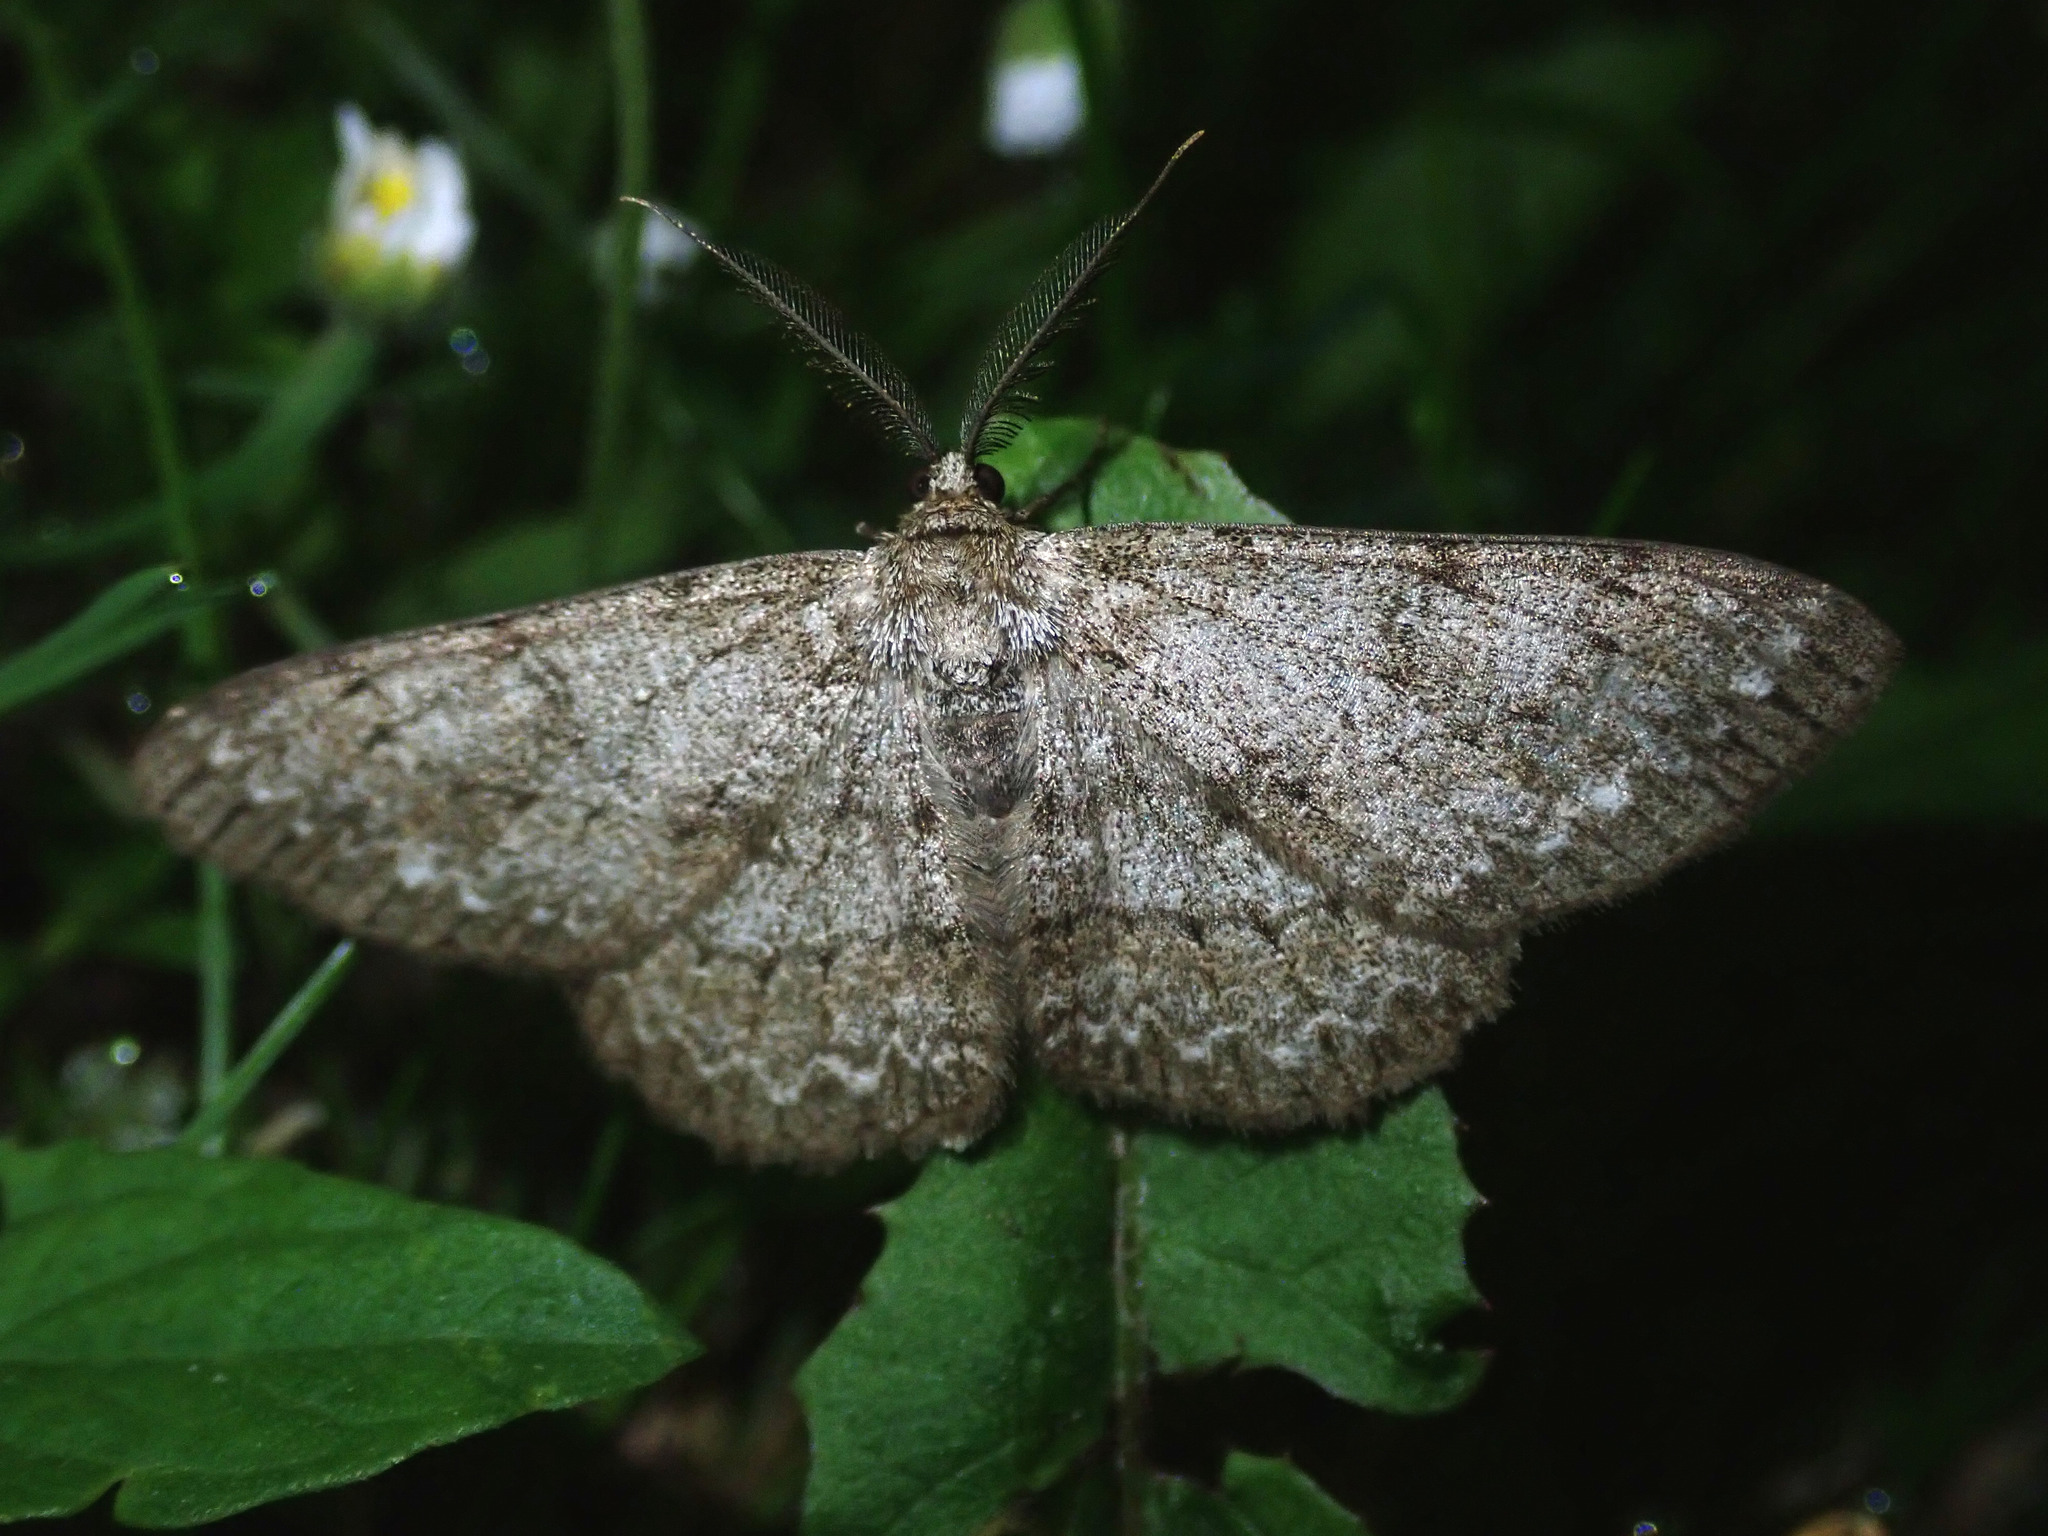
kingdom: Animalia
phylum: Arthropoda
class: Insecta
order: Lepidoptera
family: Geometridae
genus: Hypomecis
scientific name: Hypomecis punctinalis
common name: Pale oak beauty
